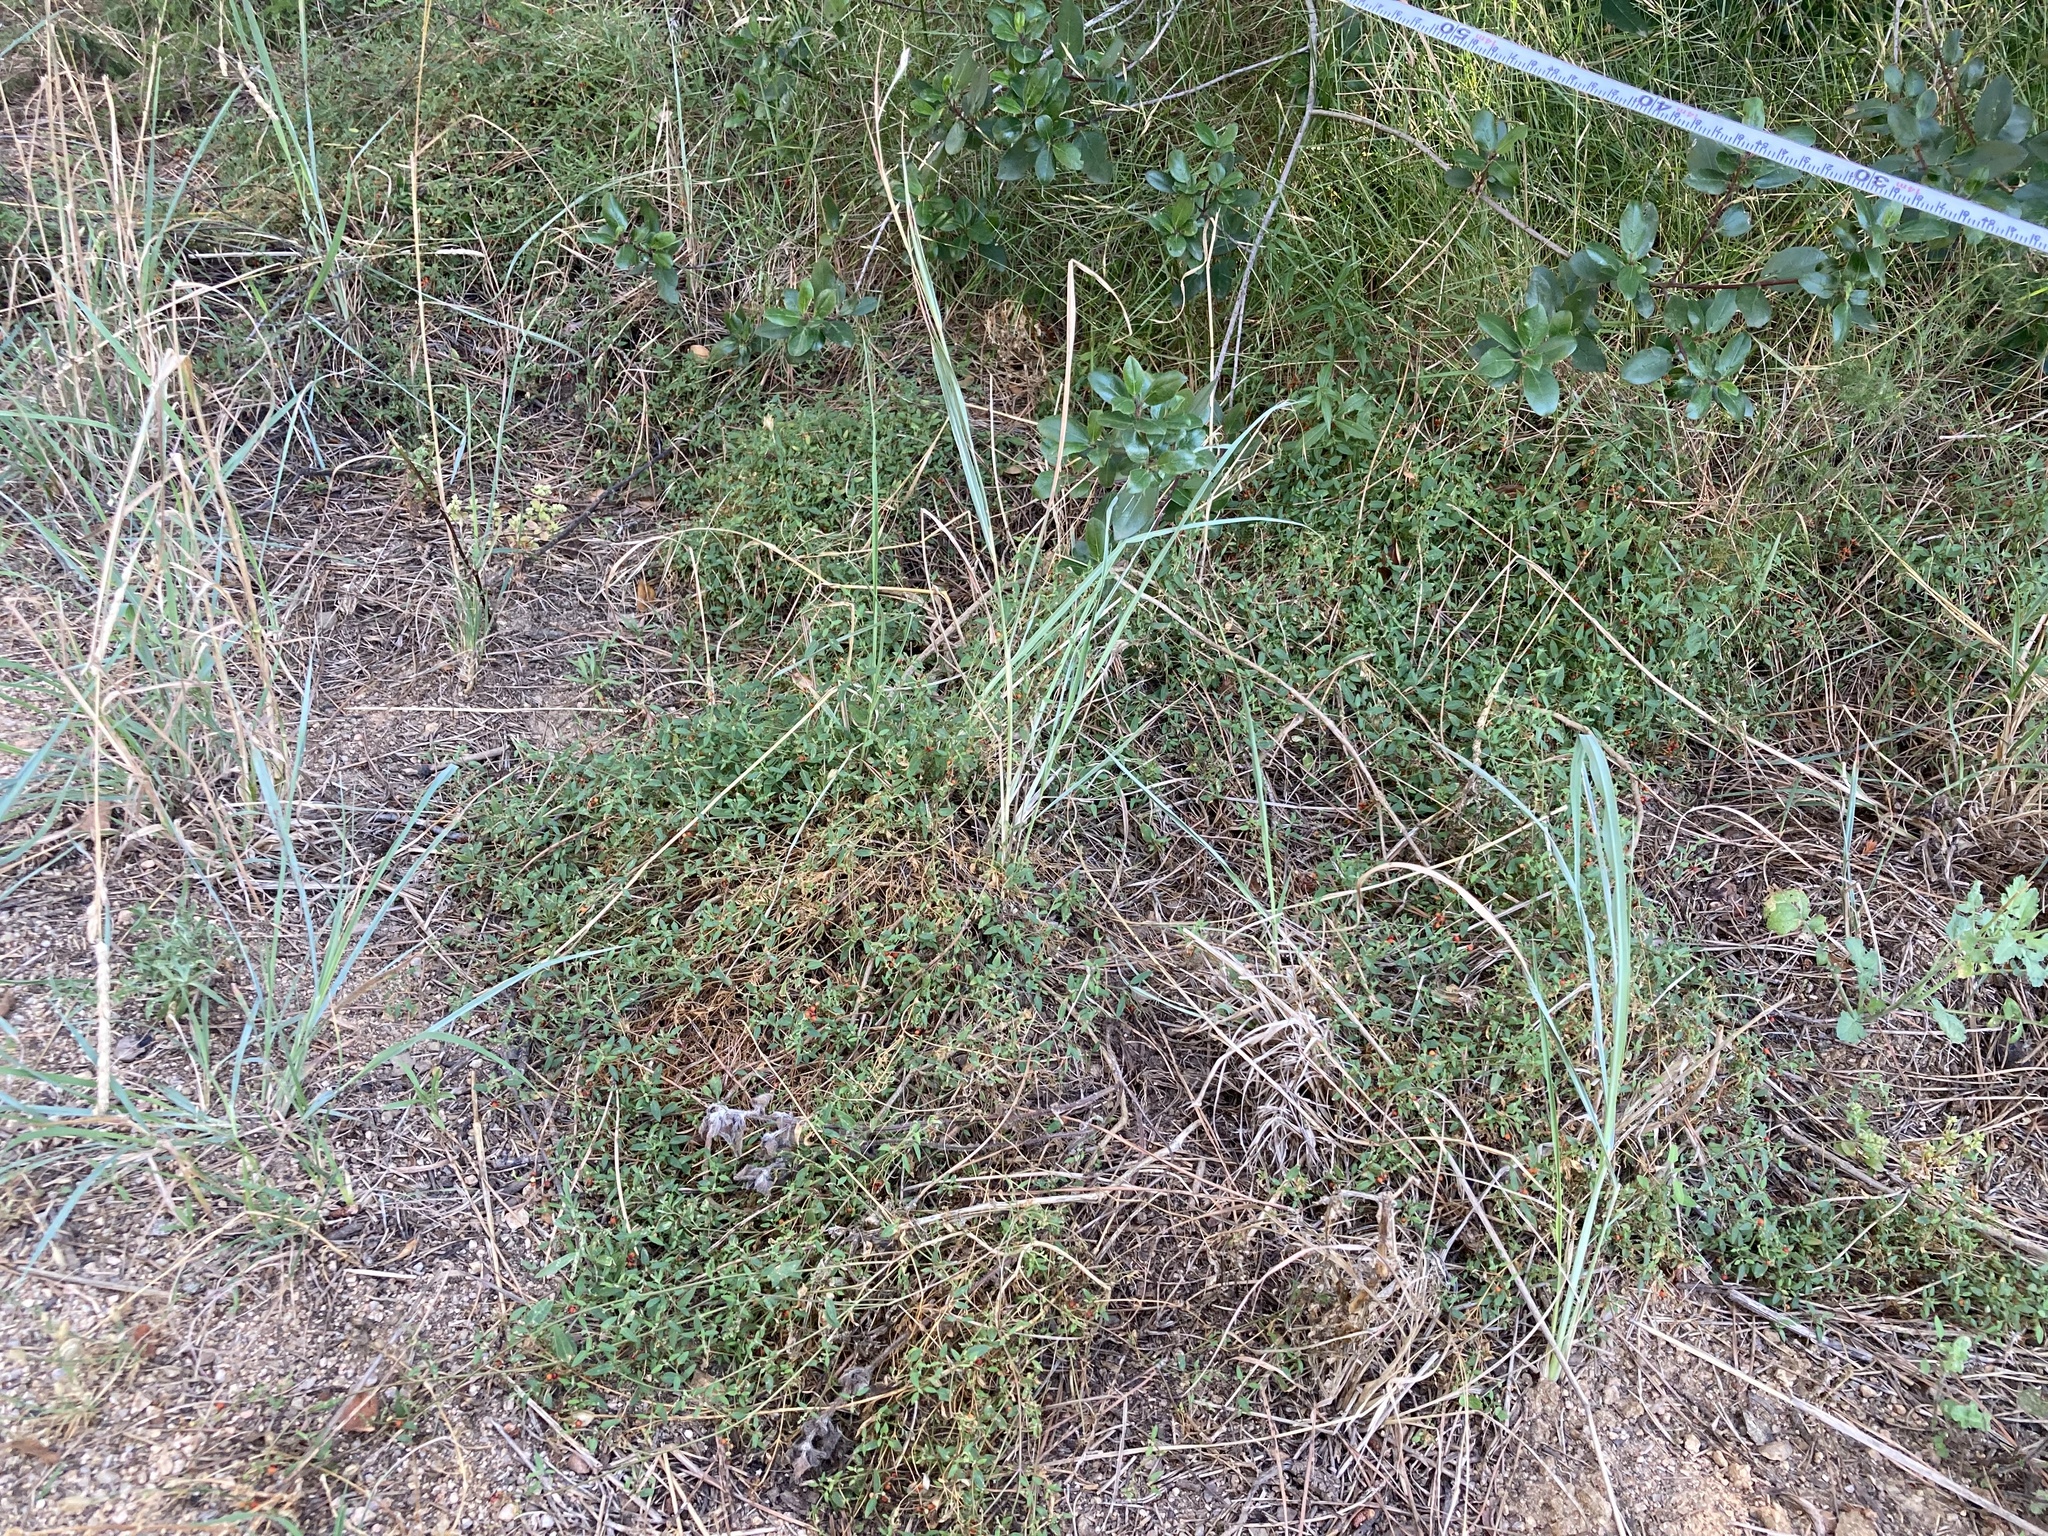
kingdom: Plantae
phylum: Tracheophyta
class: Magnoliopsida
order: Caryophyllales
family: Amaranthaceae
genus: Chenopodium
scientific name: Chenopodium nutans
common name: Climbing-saltbush
